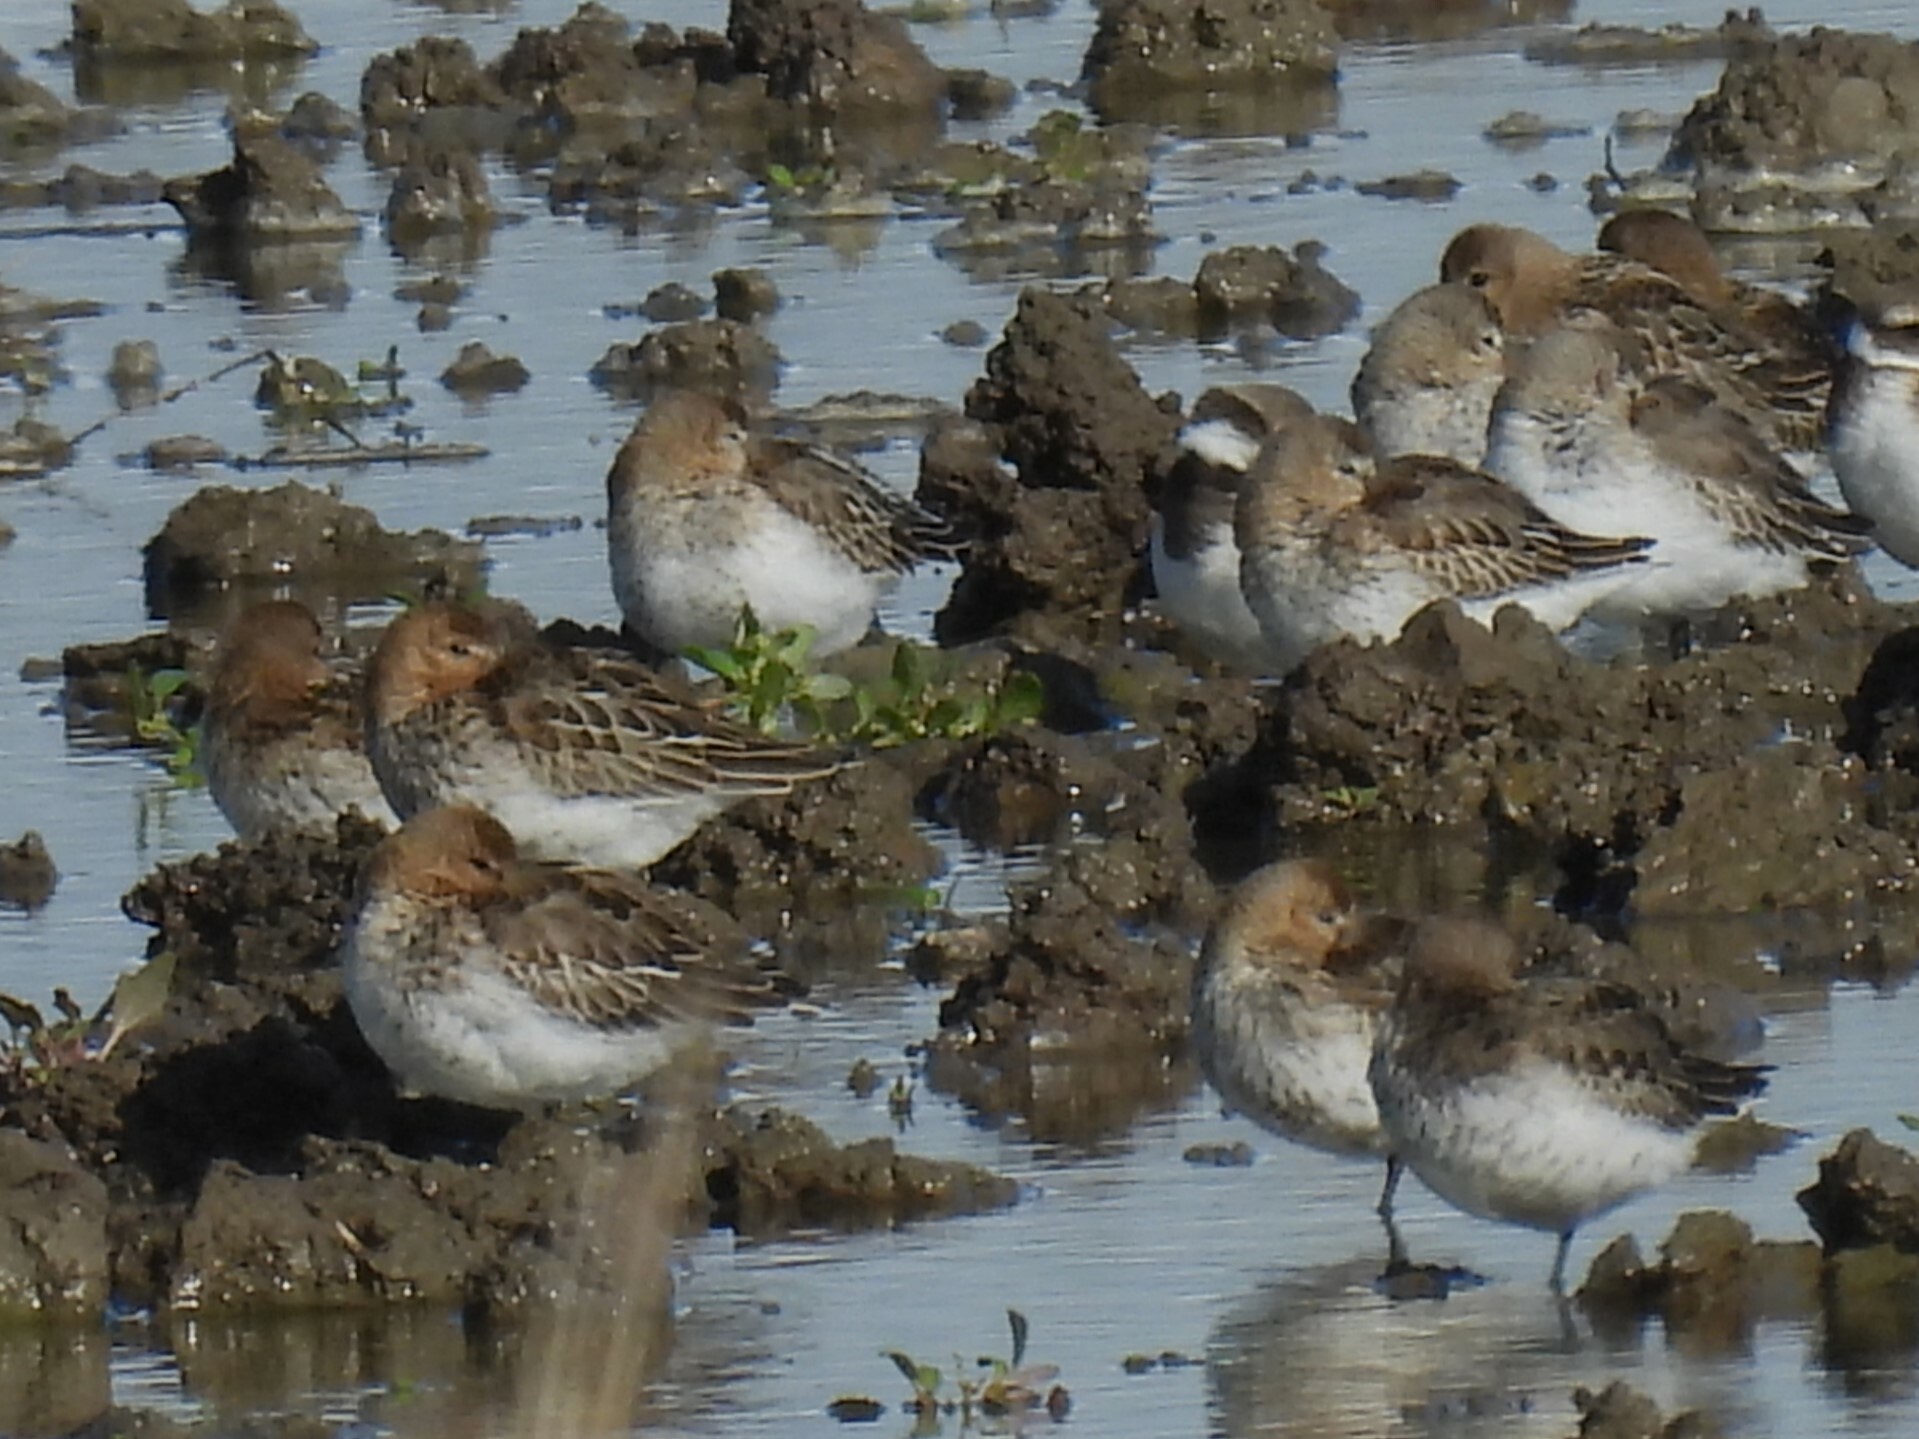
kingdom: Animalia
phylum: Chordata
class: Aves
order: Charadriiformes
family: Scolopacidae
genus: Calidris
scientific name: Calidris alpina
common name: Dunlin
